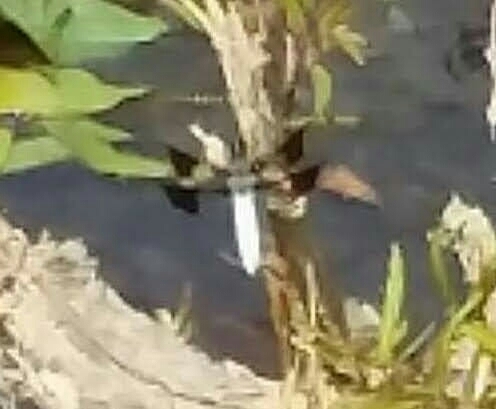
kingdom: Animalia
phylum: Arthropoda
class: Insecta
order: Odonata
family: Libellulidae
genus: Plathemis
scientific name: Plathemis lydia
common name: Common whitetail
